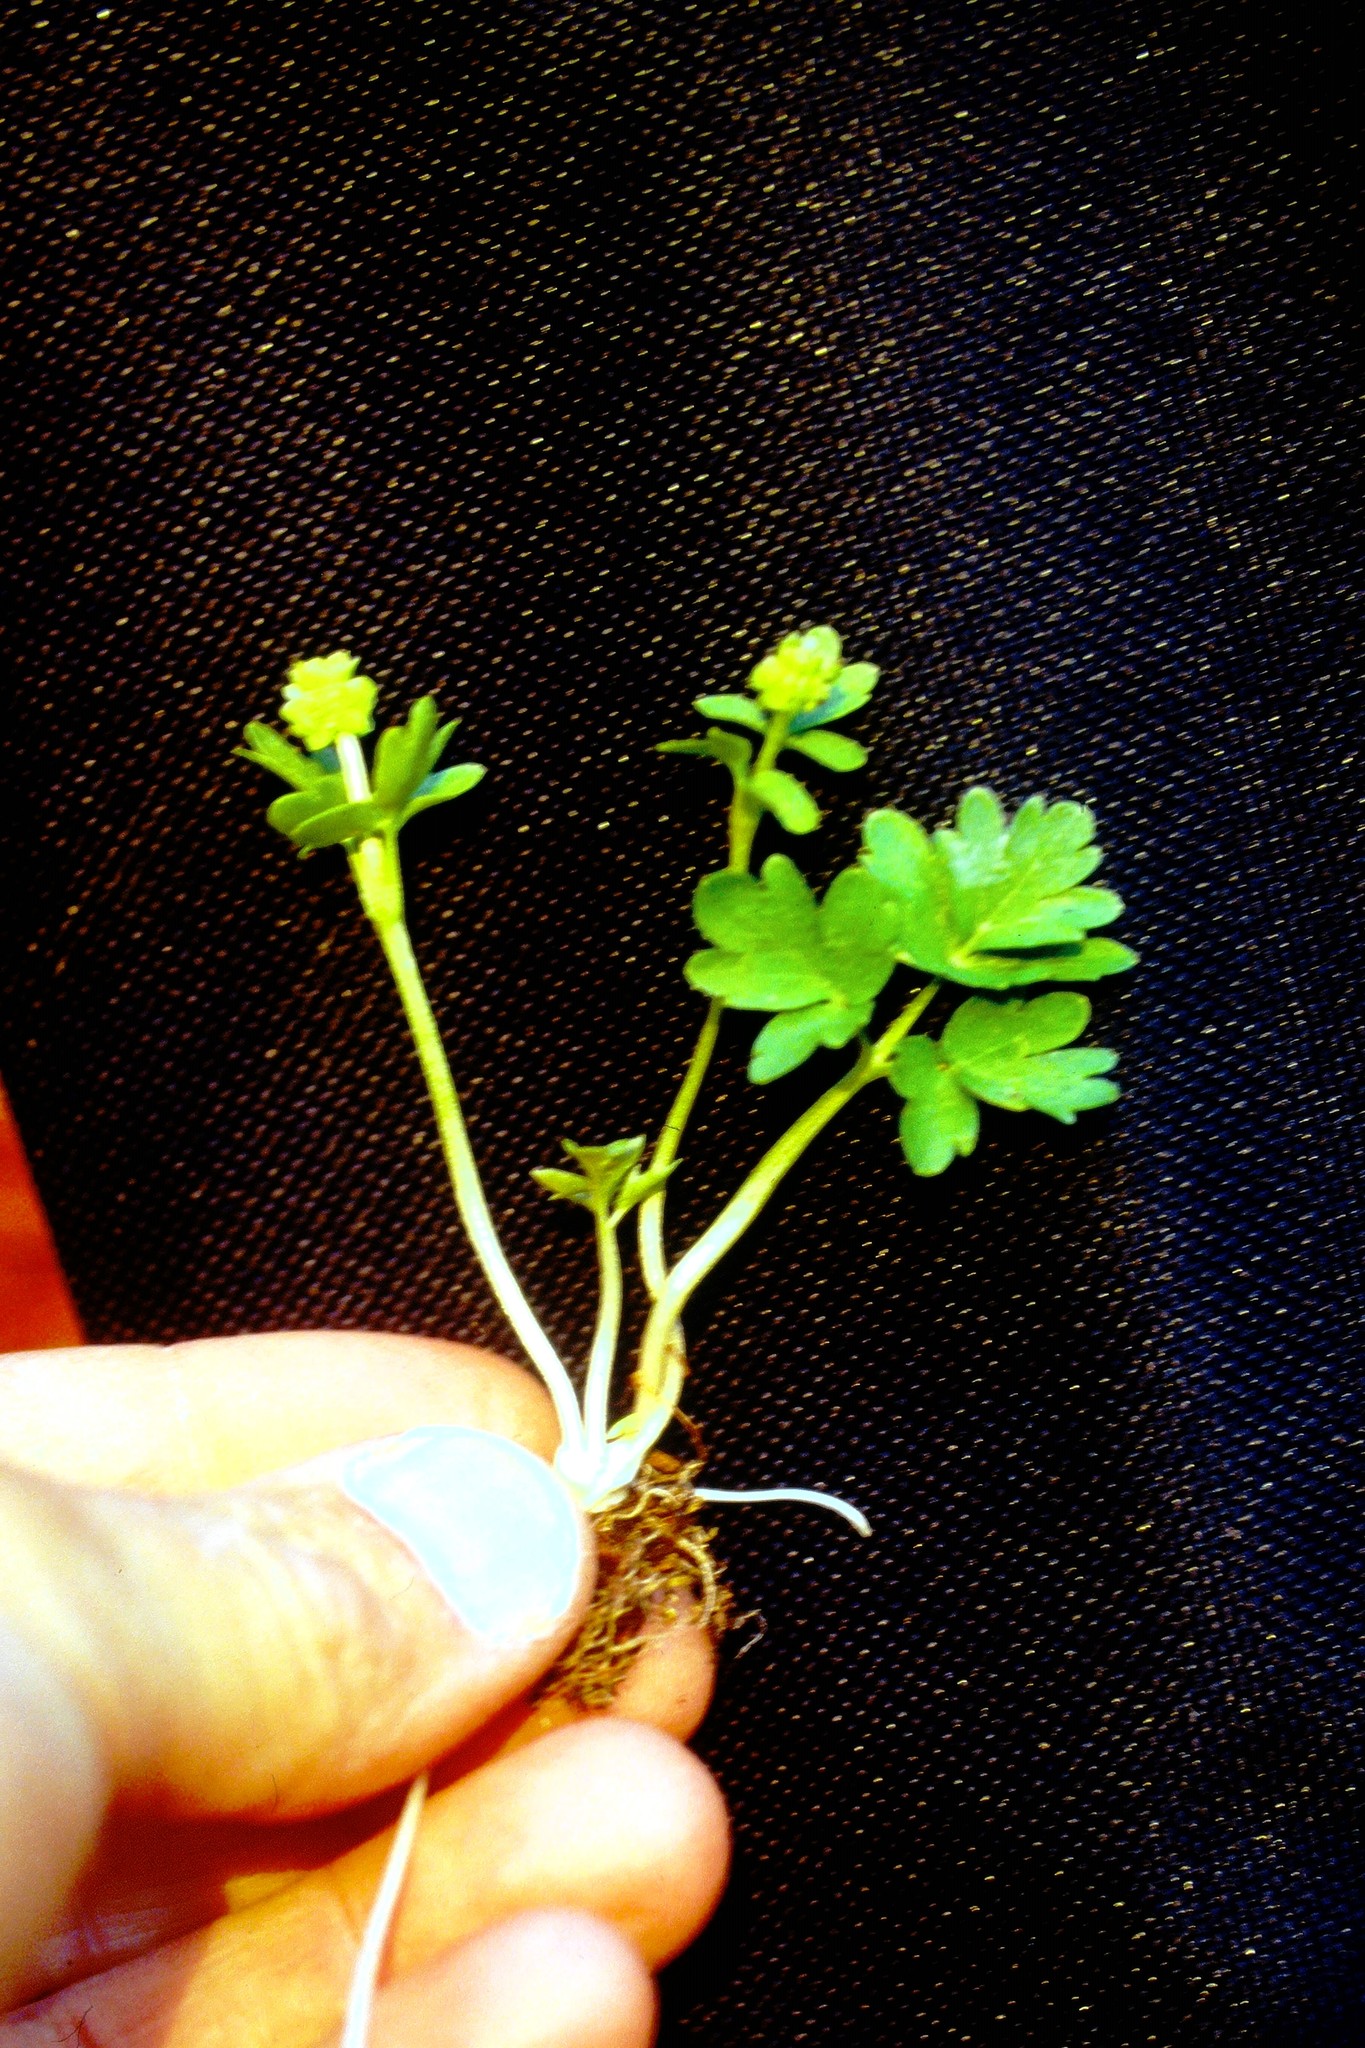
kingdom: Plantae
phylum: Tracheophyta
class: Magnoliopsida
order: Dipsacales
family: Viburnaceae
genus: Adoxa
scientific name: Adoxa moschatellina
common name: Moschatel
